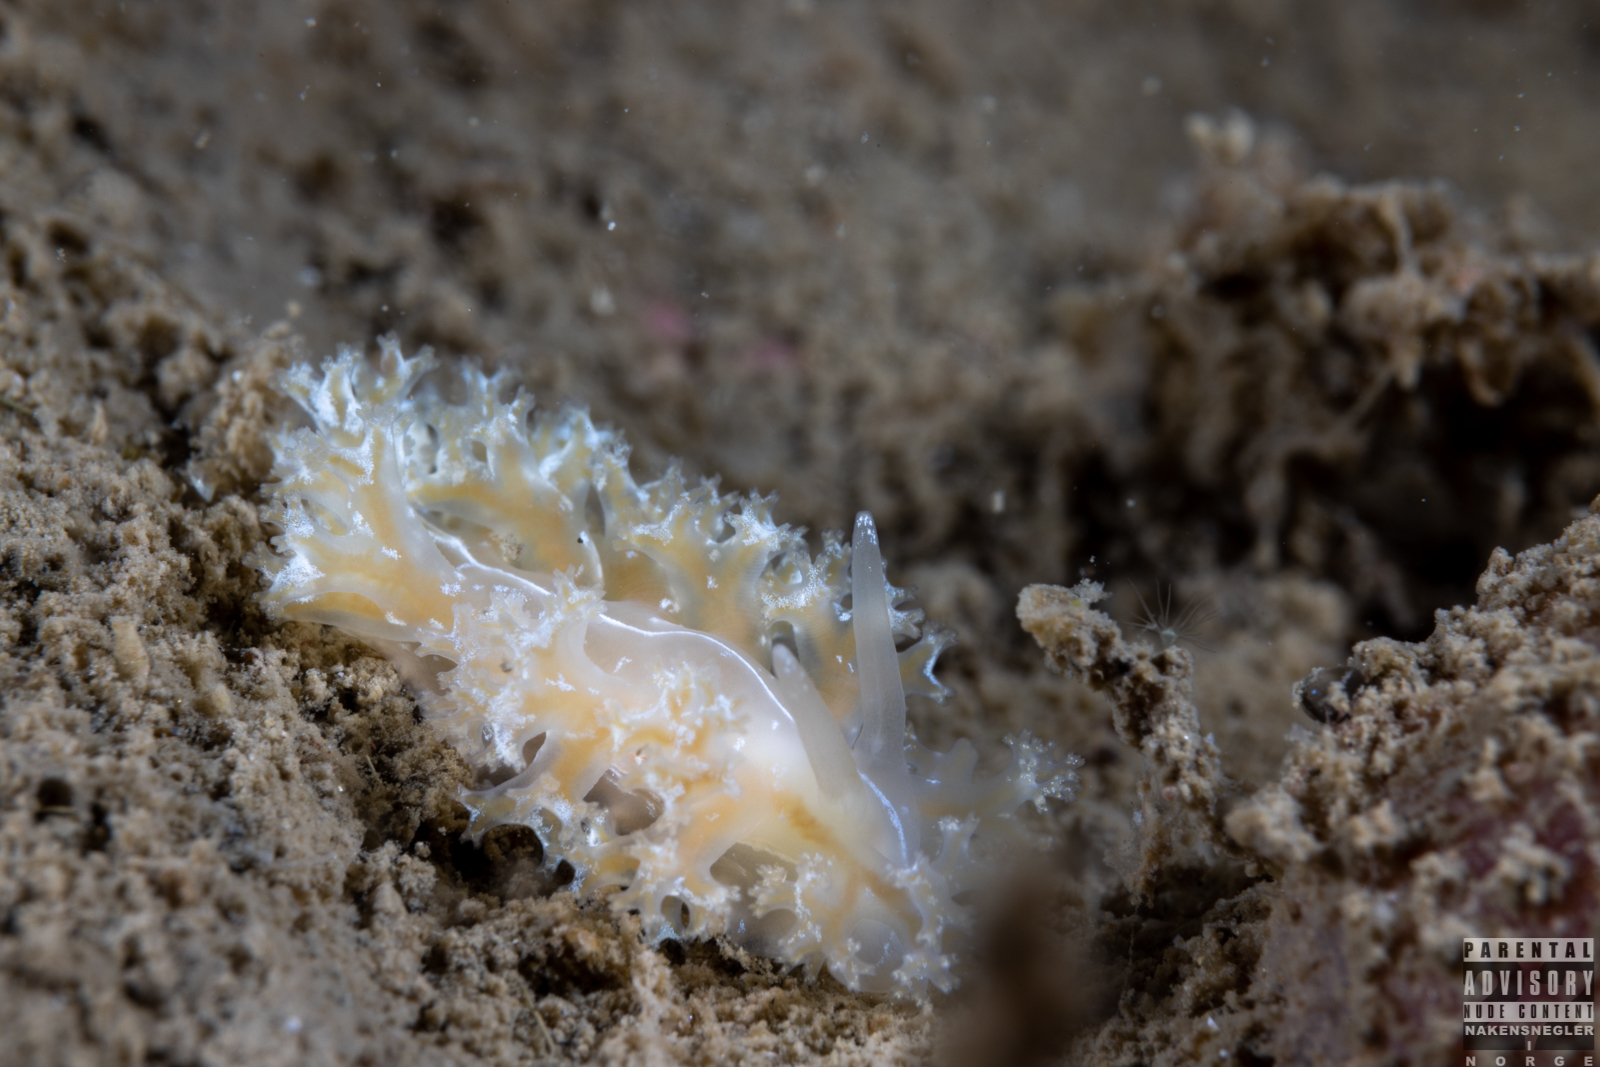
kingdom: Animalia
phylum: Mollusca
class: Gastropoda
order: Nudibranchia
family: Heroidae
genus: Hero
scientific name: Hero formosa
